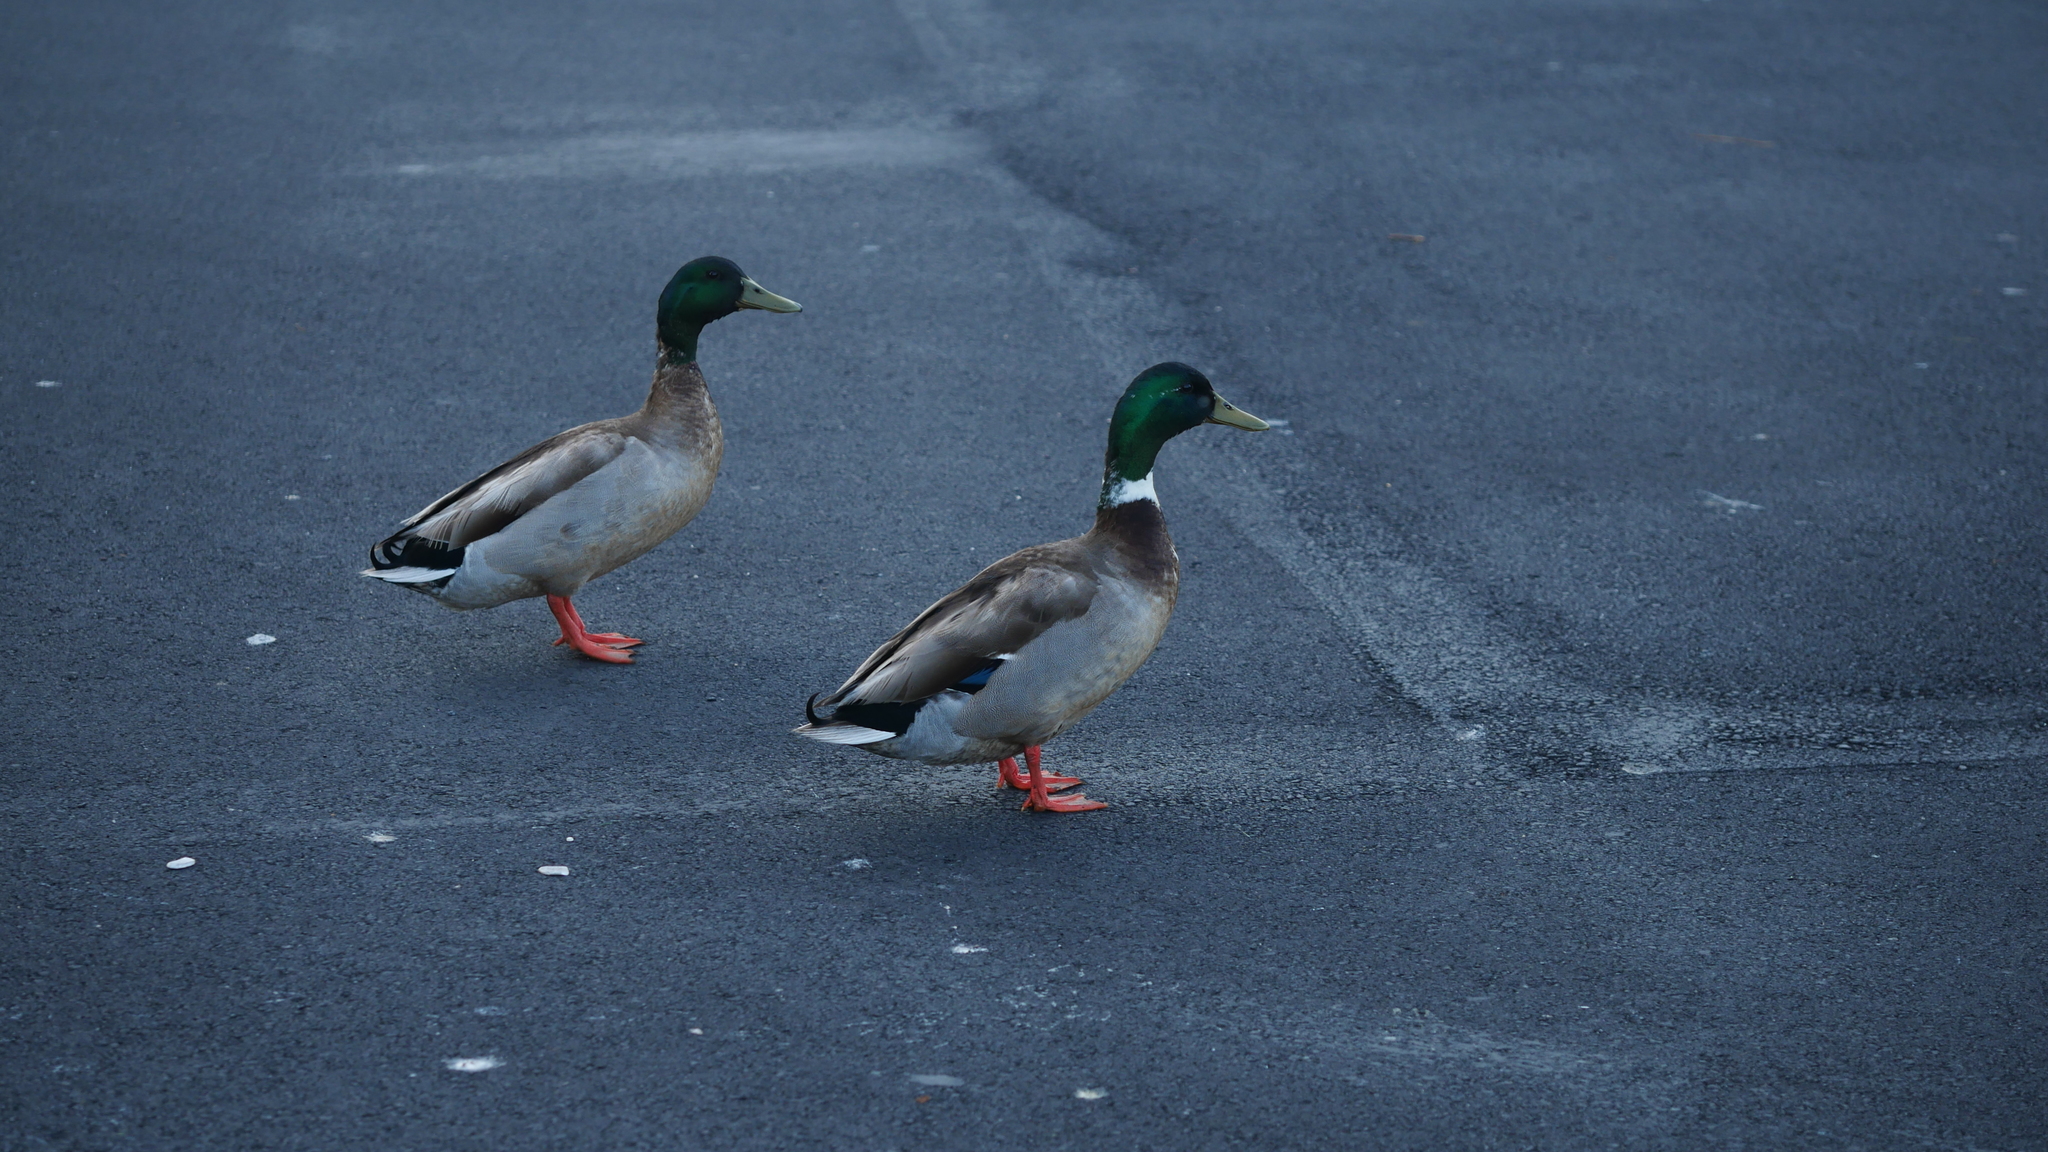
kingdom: Animalia
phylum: Chordata
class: Aves
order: Anseriformes
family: Anatidae
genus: Anas
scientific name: Anas platyrhynchos
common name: Mallard
